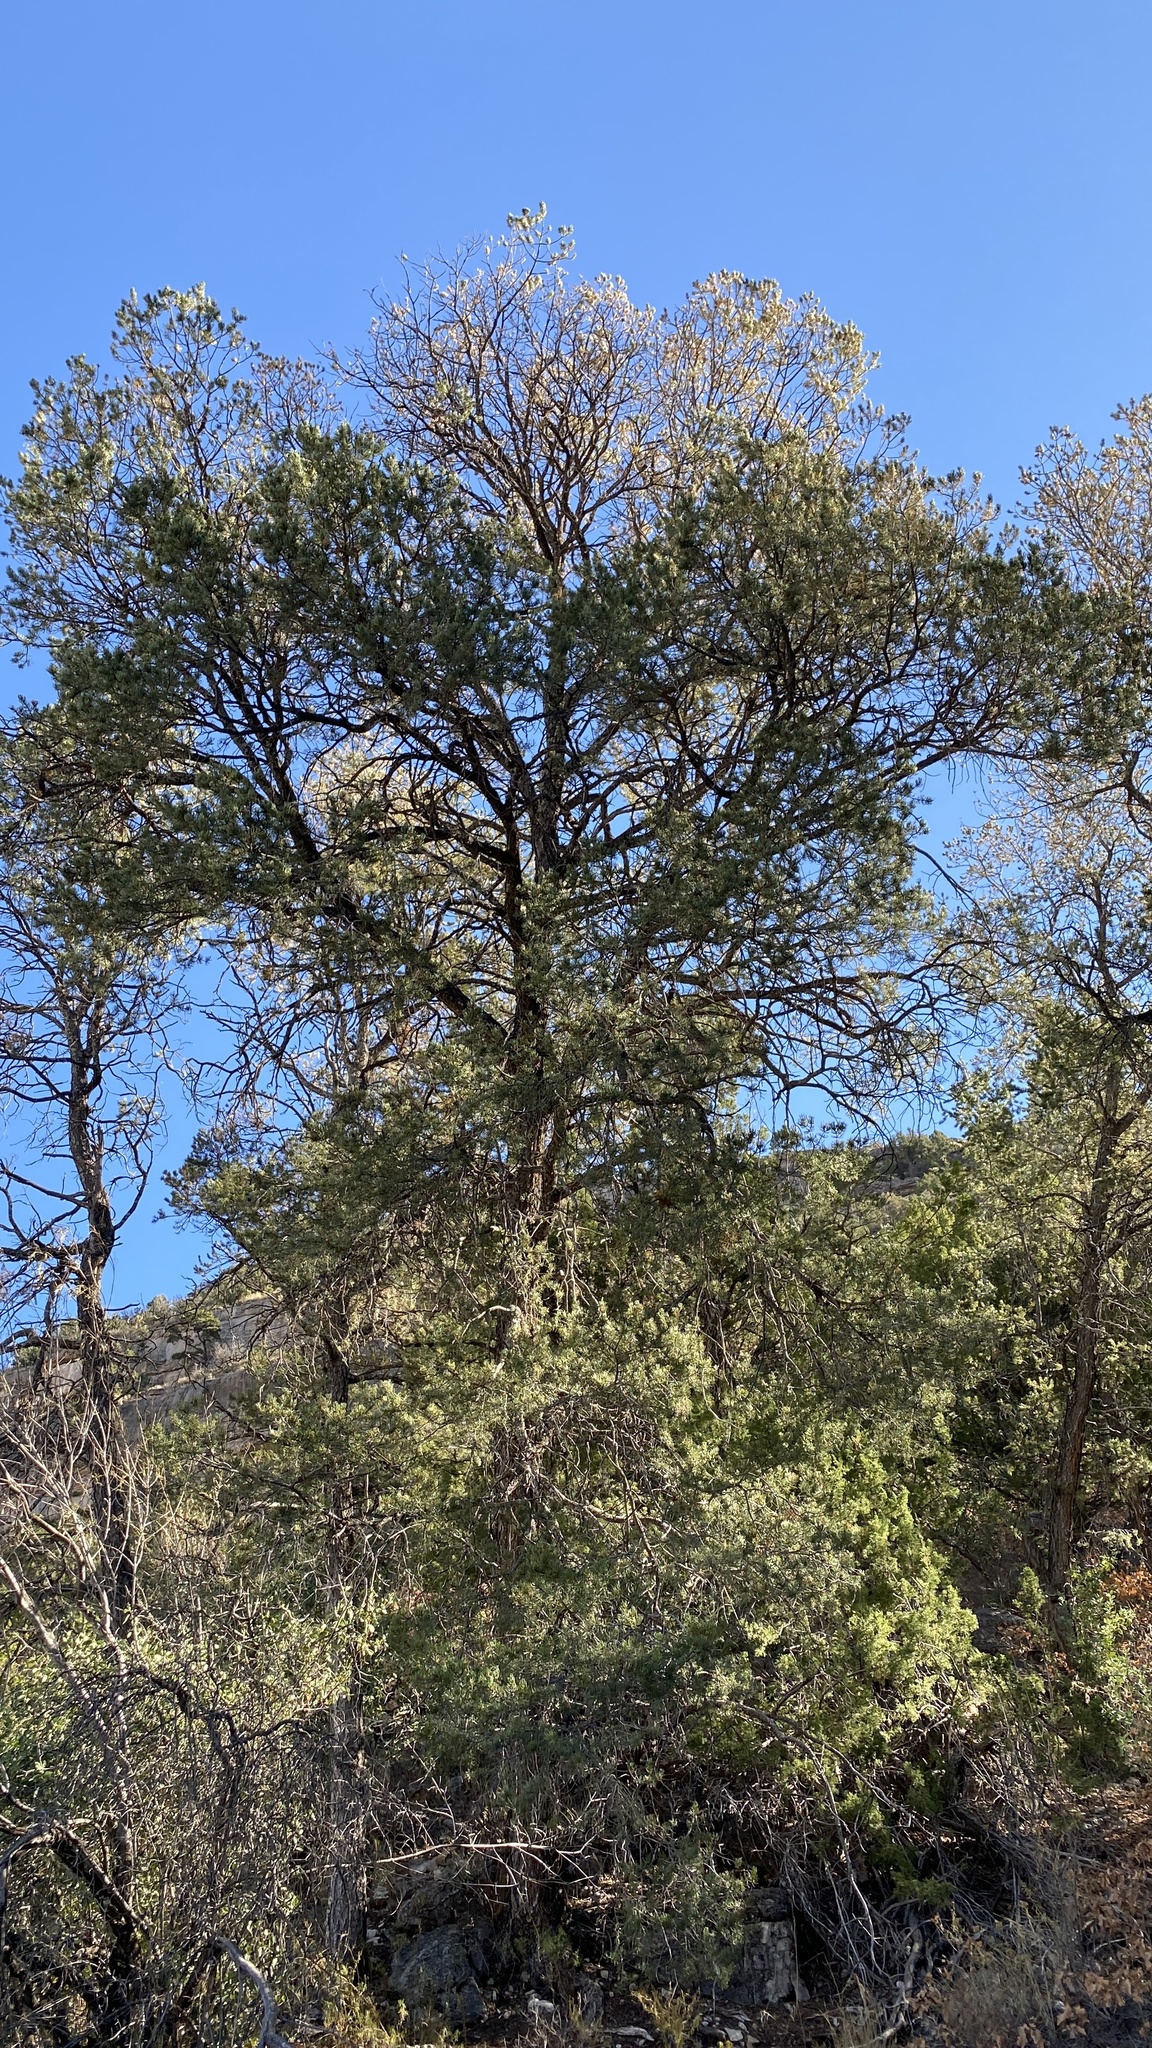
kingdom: Plantae
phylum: Tracheophyta
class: Pinopsida
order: Pinales
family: Pinaceae
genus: Pinus
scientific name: Pinus edulis
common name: Colorado pinyon
